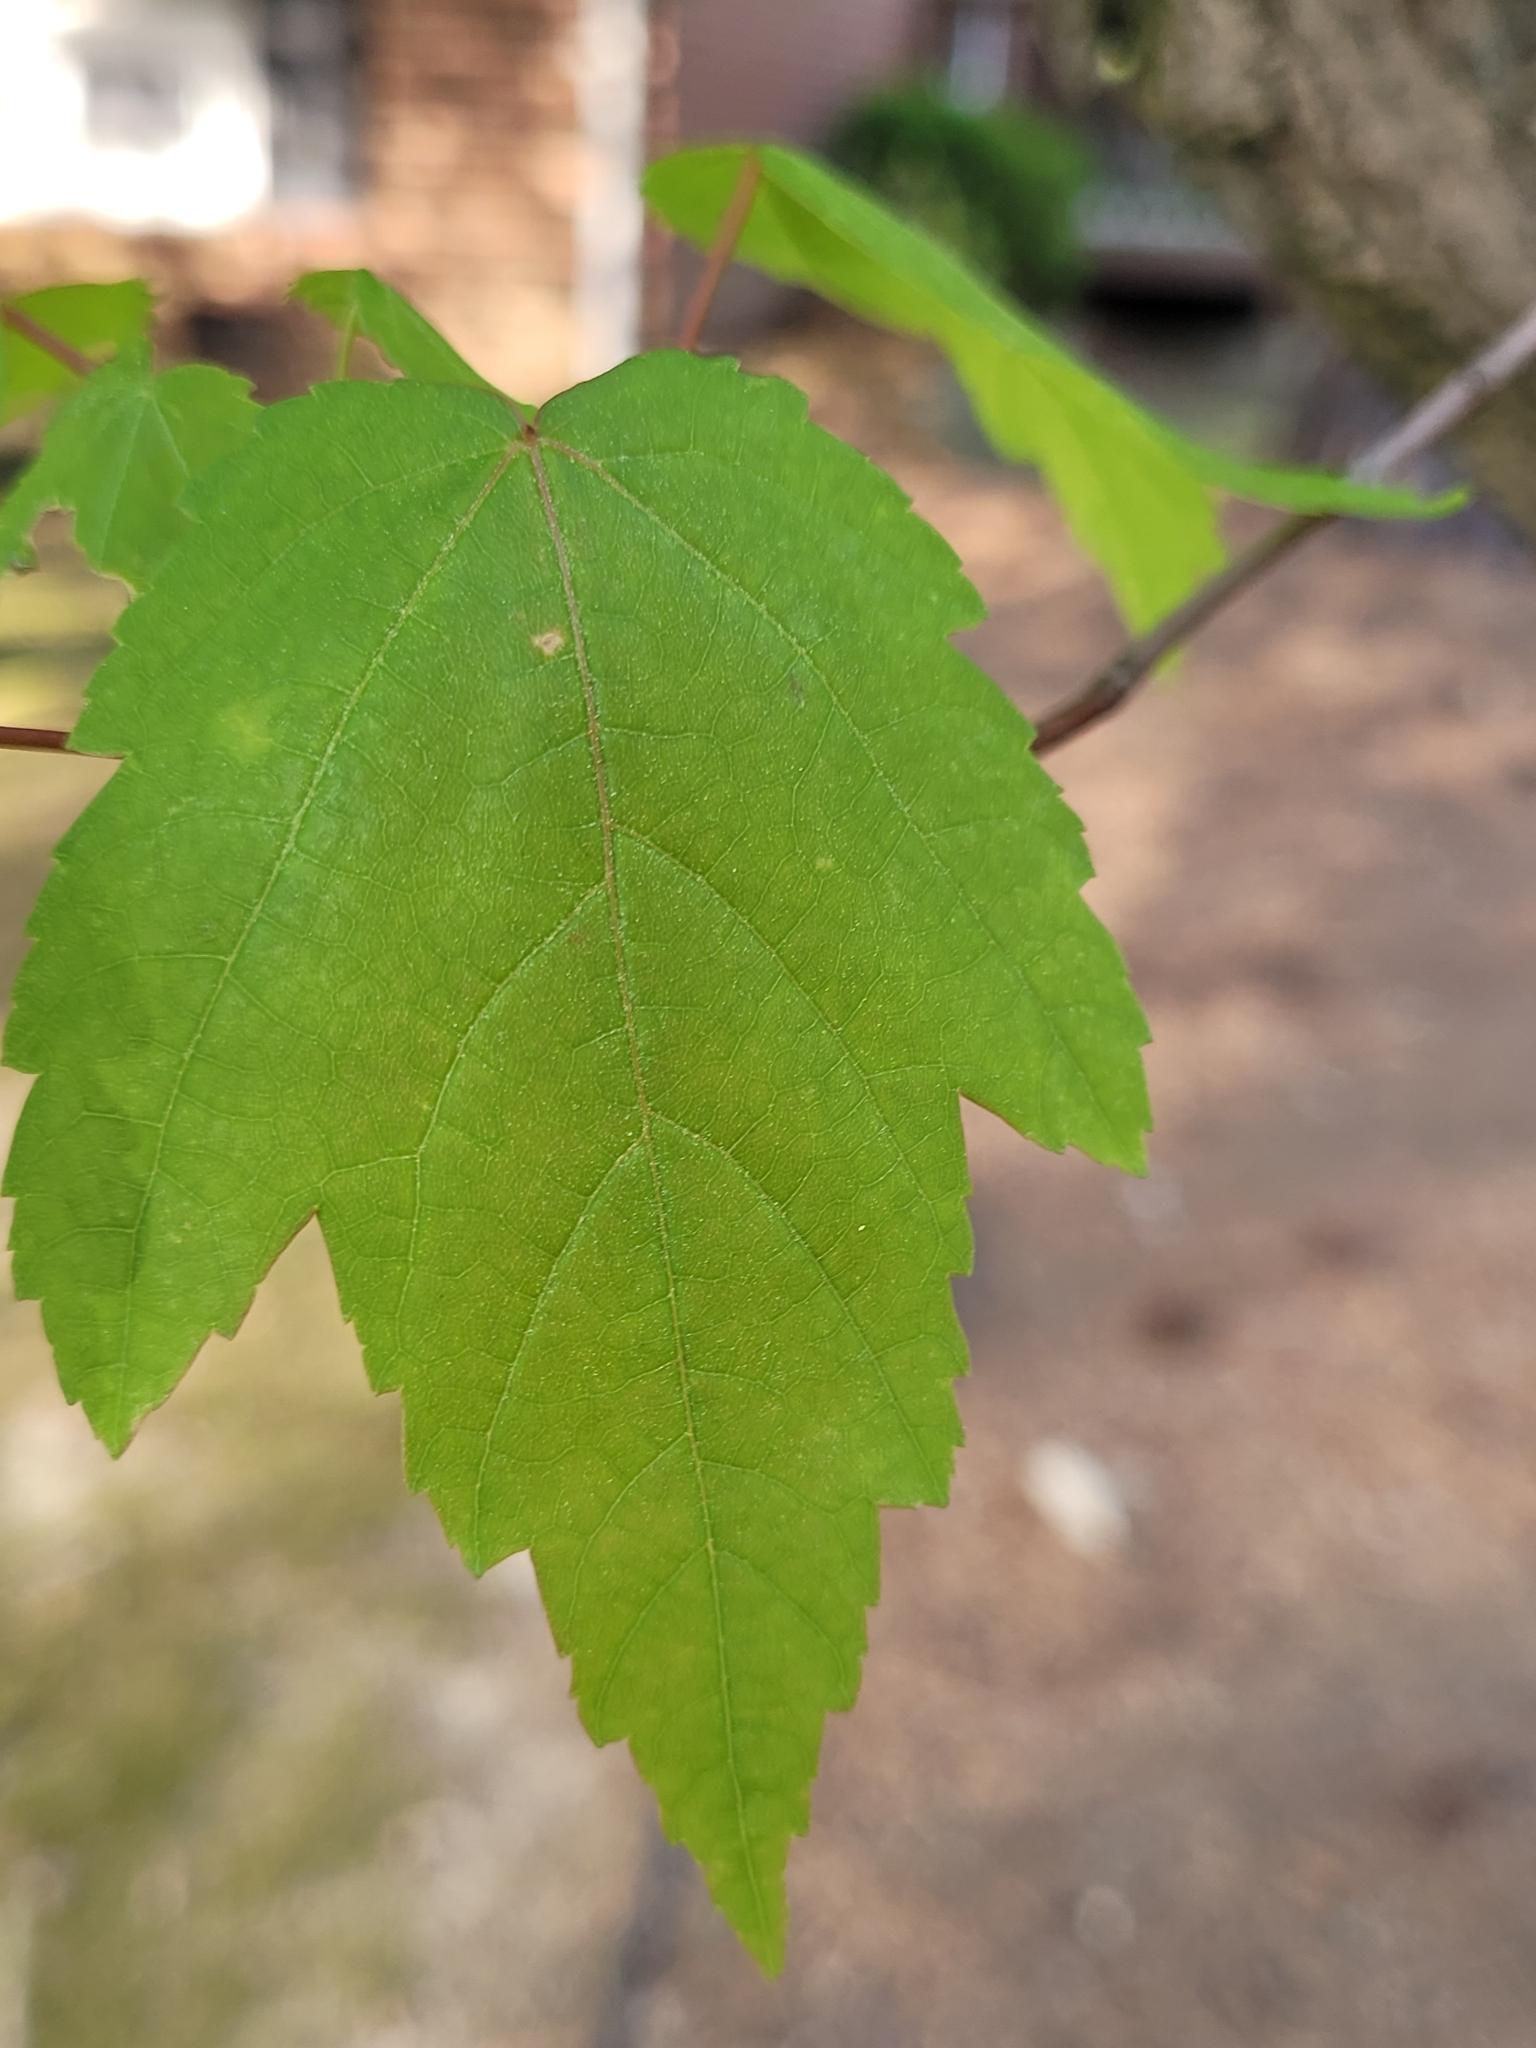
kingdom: Plantae
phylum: Tracheophyta
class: Magnoliopsida
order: Sapindales
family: Sapindaceae
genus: Acer
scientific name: Acer rubrum
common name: Red maple
